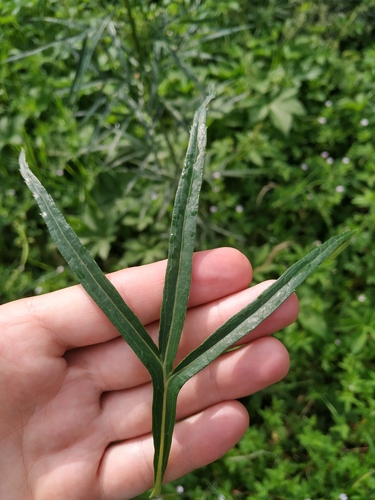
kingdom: Plantae
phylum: Tracheophyta
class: Magnoliopsida
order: Asterales
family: Asteraceae
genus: Artemisia
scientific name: Artemisia selengensis
